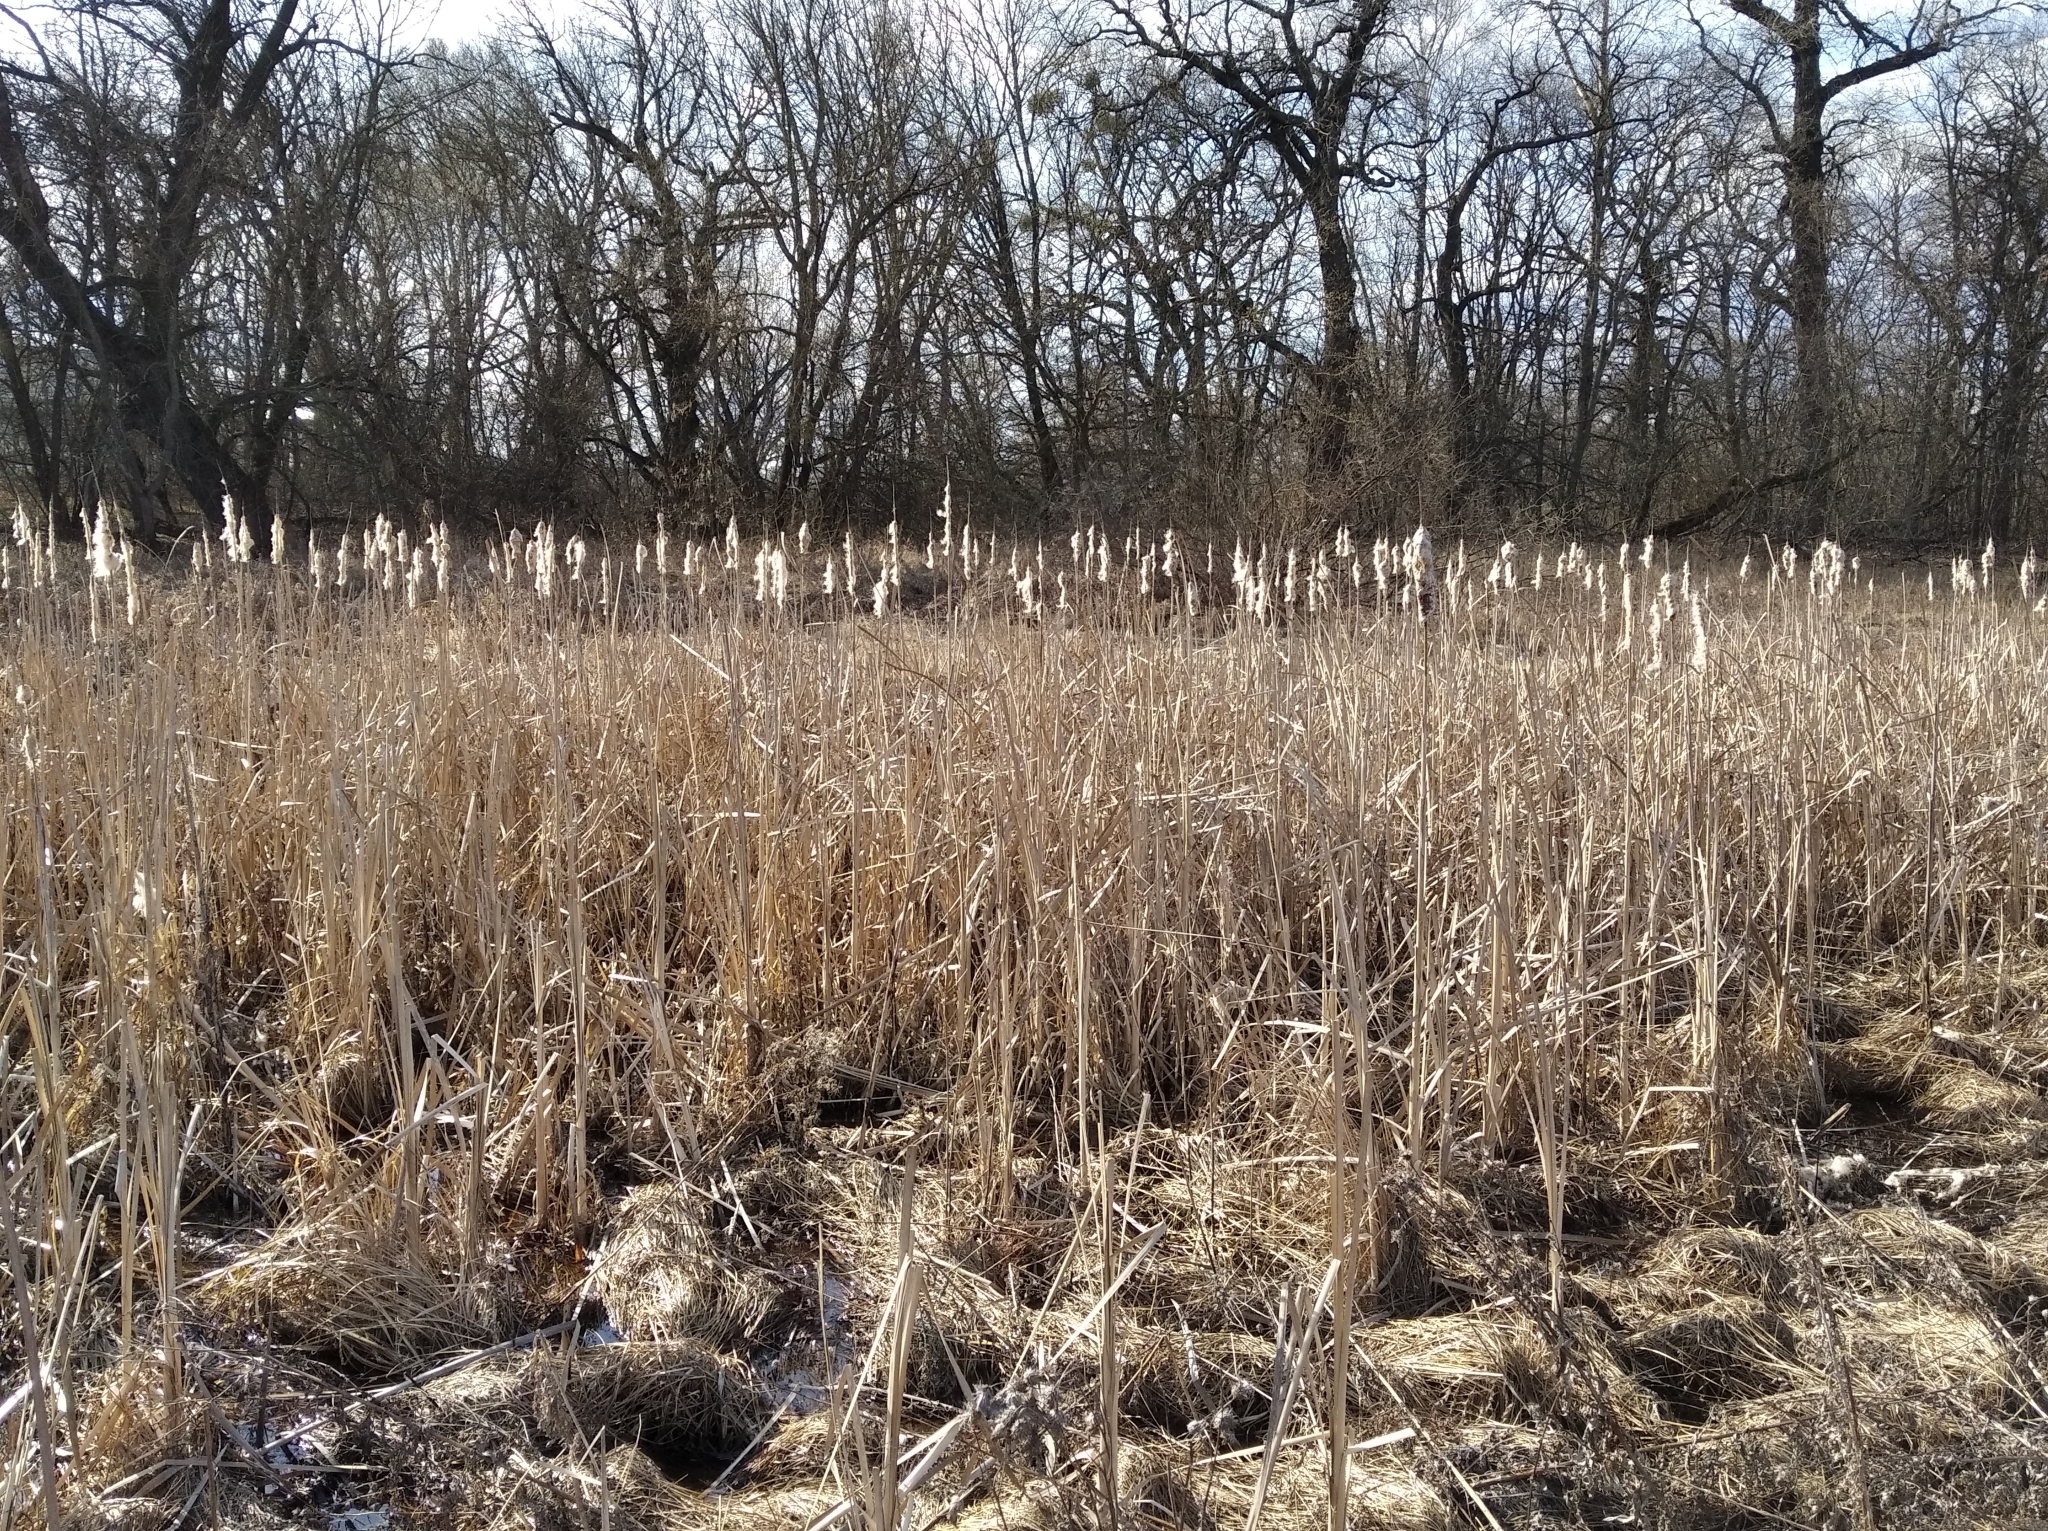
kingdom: Plantae
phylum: Tracheophyta
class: Liliopsida
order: Poales
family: Typhaceae
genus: Typha
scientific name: Typha latifolia
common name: Broadleaf cattail
